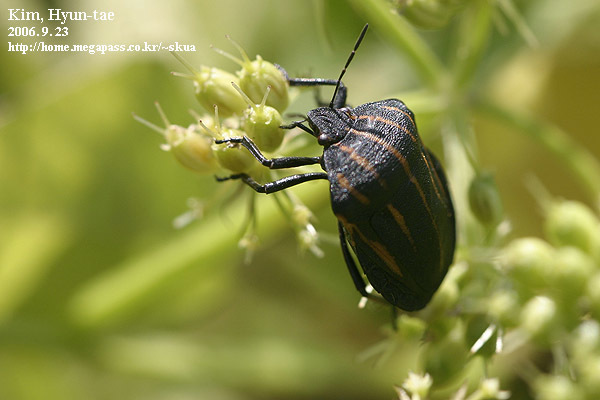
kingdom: Animalia
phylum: Arthropoda
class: Insecta
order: Hemiptera
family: Pentatomidae
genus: Graphosoma
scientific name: Graphosoma rubrolineatum
